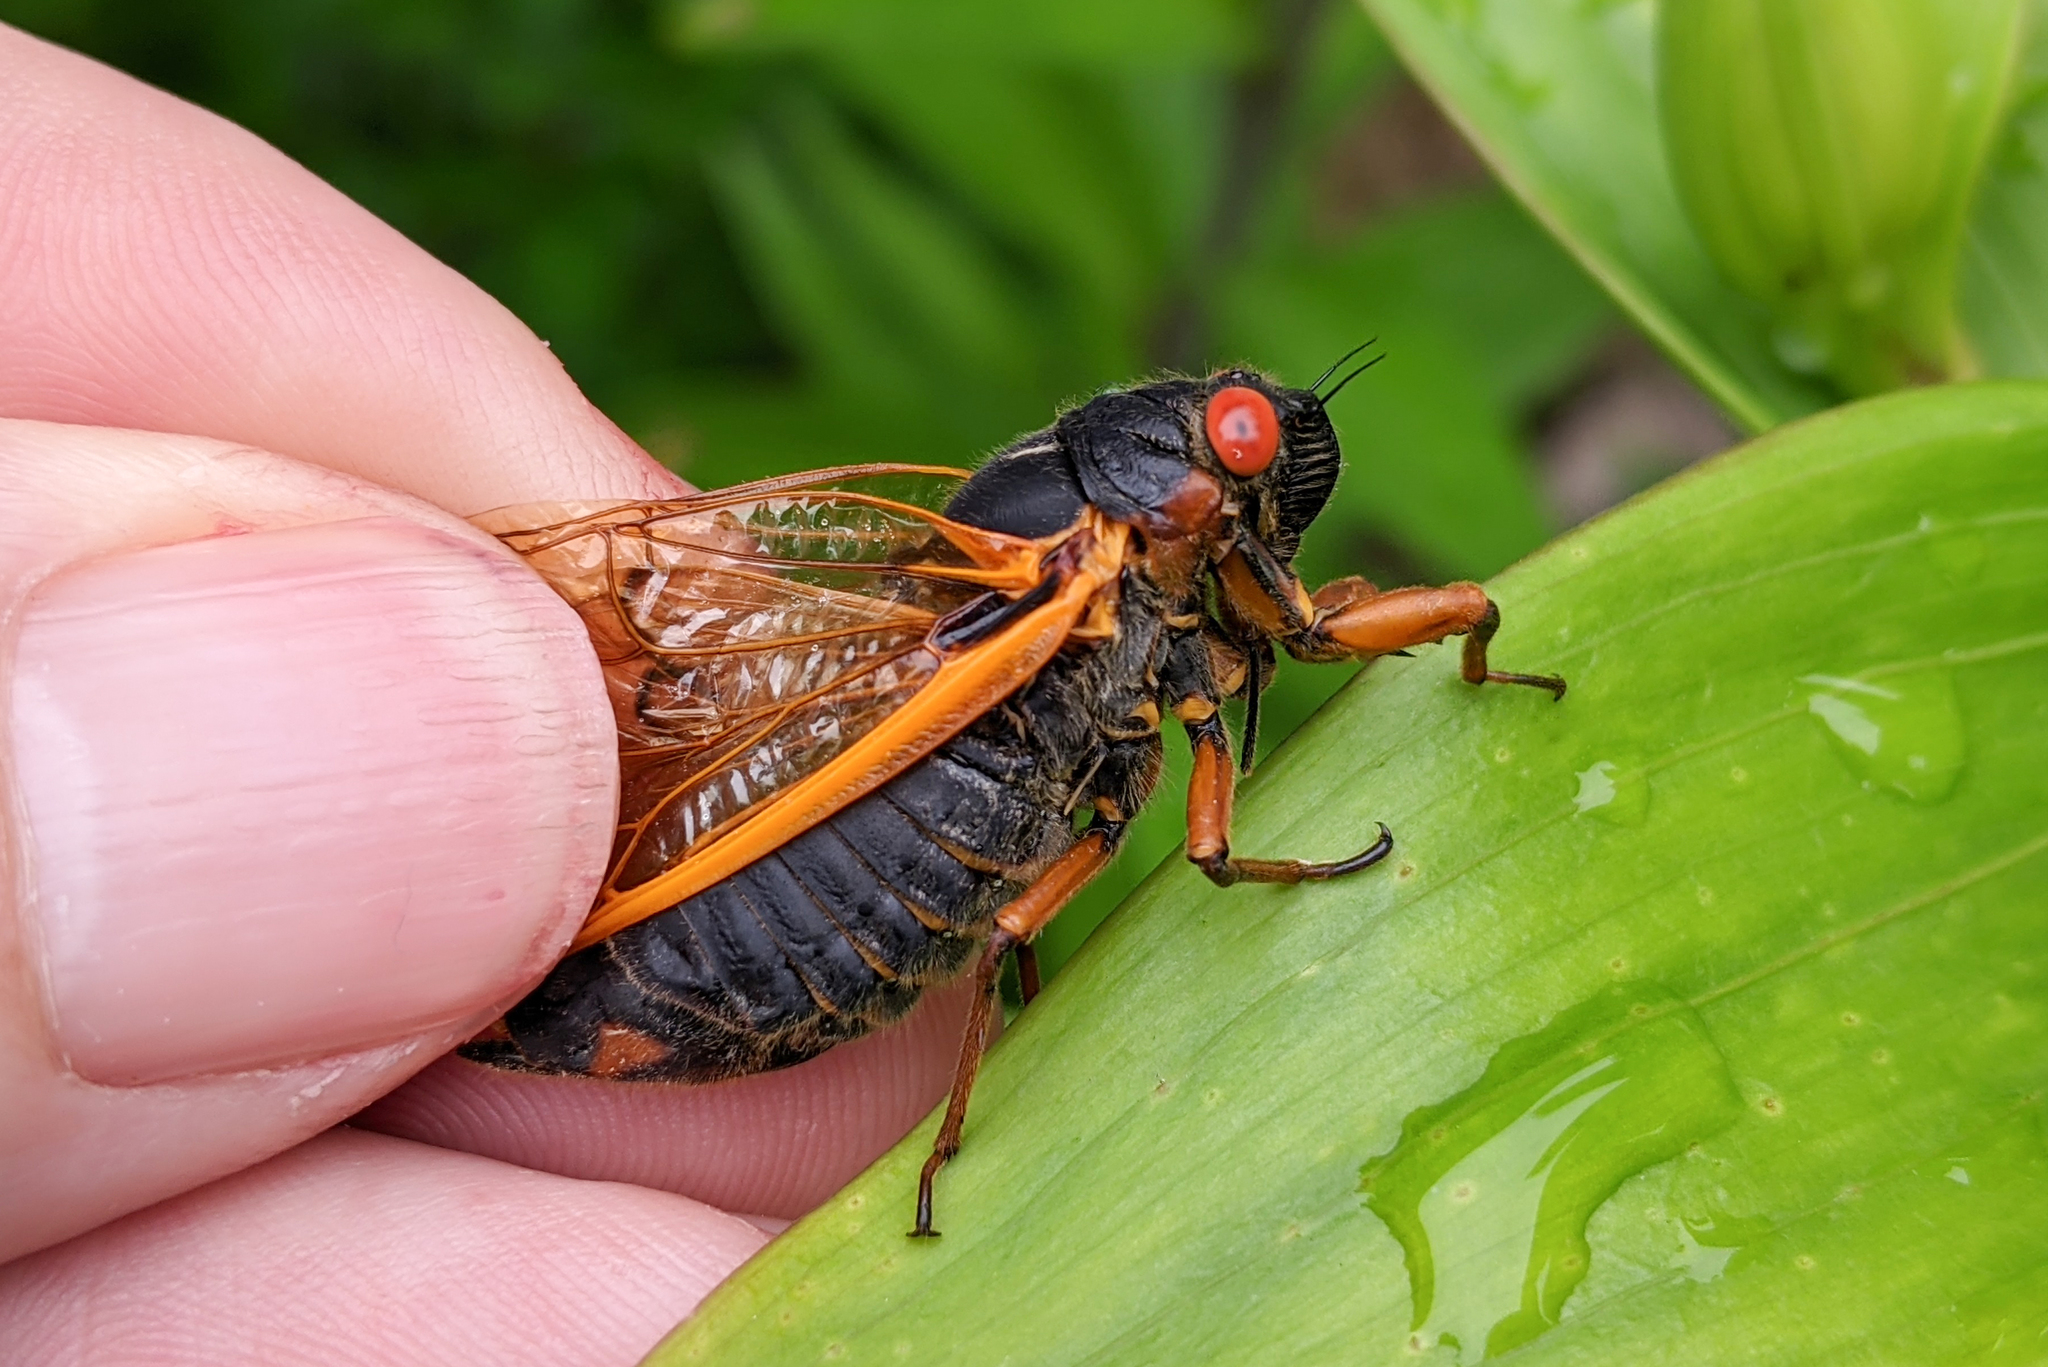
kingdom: Animalia
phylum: Arthropoda
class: Insecta
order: Hemiptera
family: Cicadidae
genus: Magicicada
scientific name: Magicicada septendecim
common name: Periodical cicada
